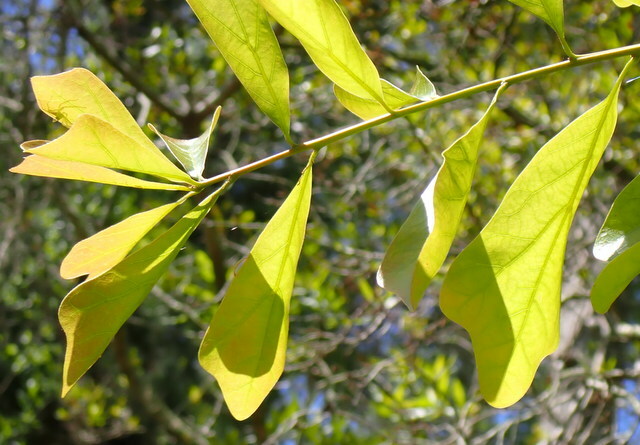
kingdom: Plantae
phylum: Tracheophyta
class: Magnoliopsida
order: Fagales
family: Fagaceae
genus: Quercus
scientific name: Quercus nigra
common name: Water oak
